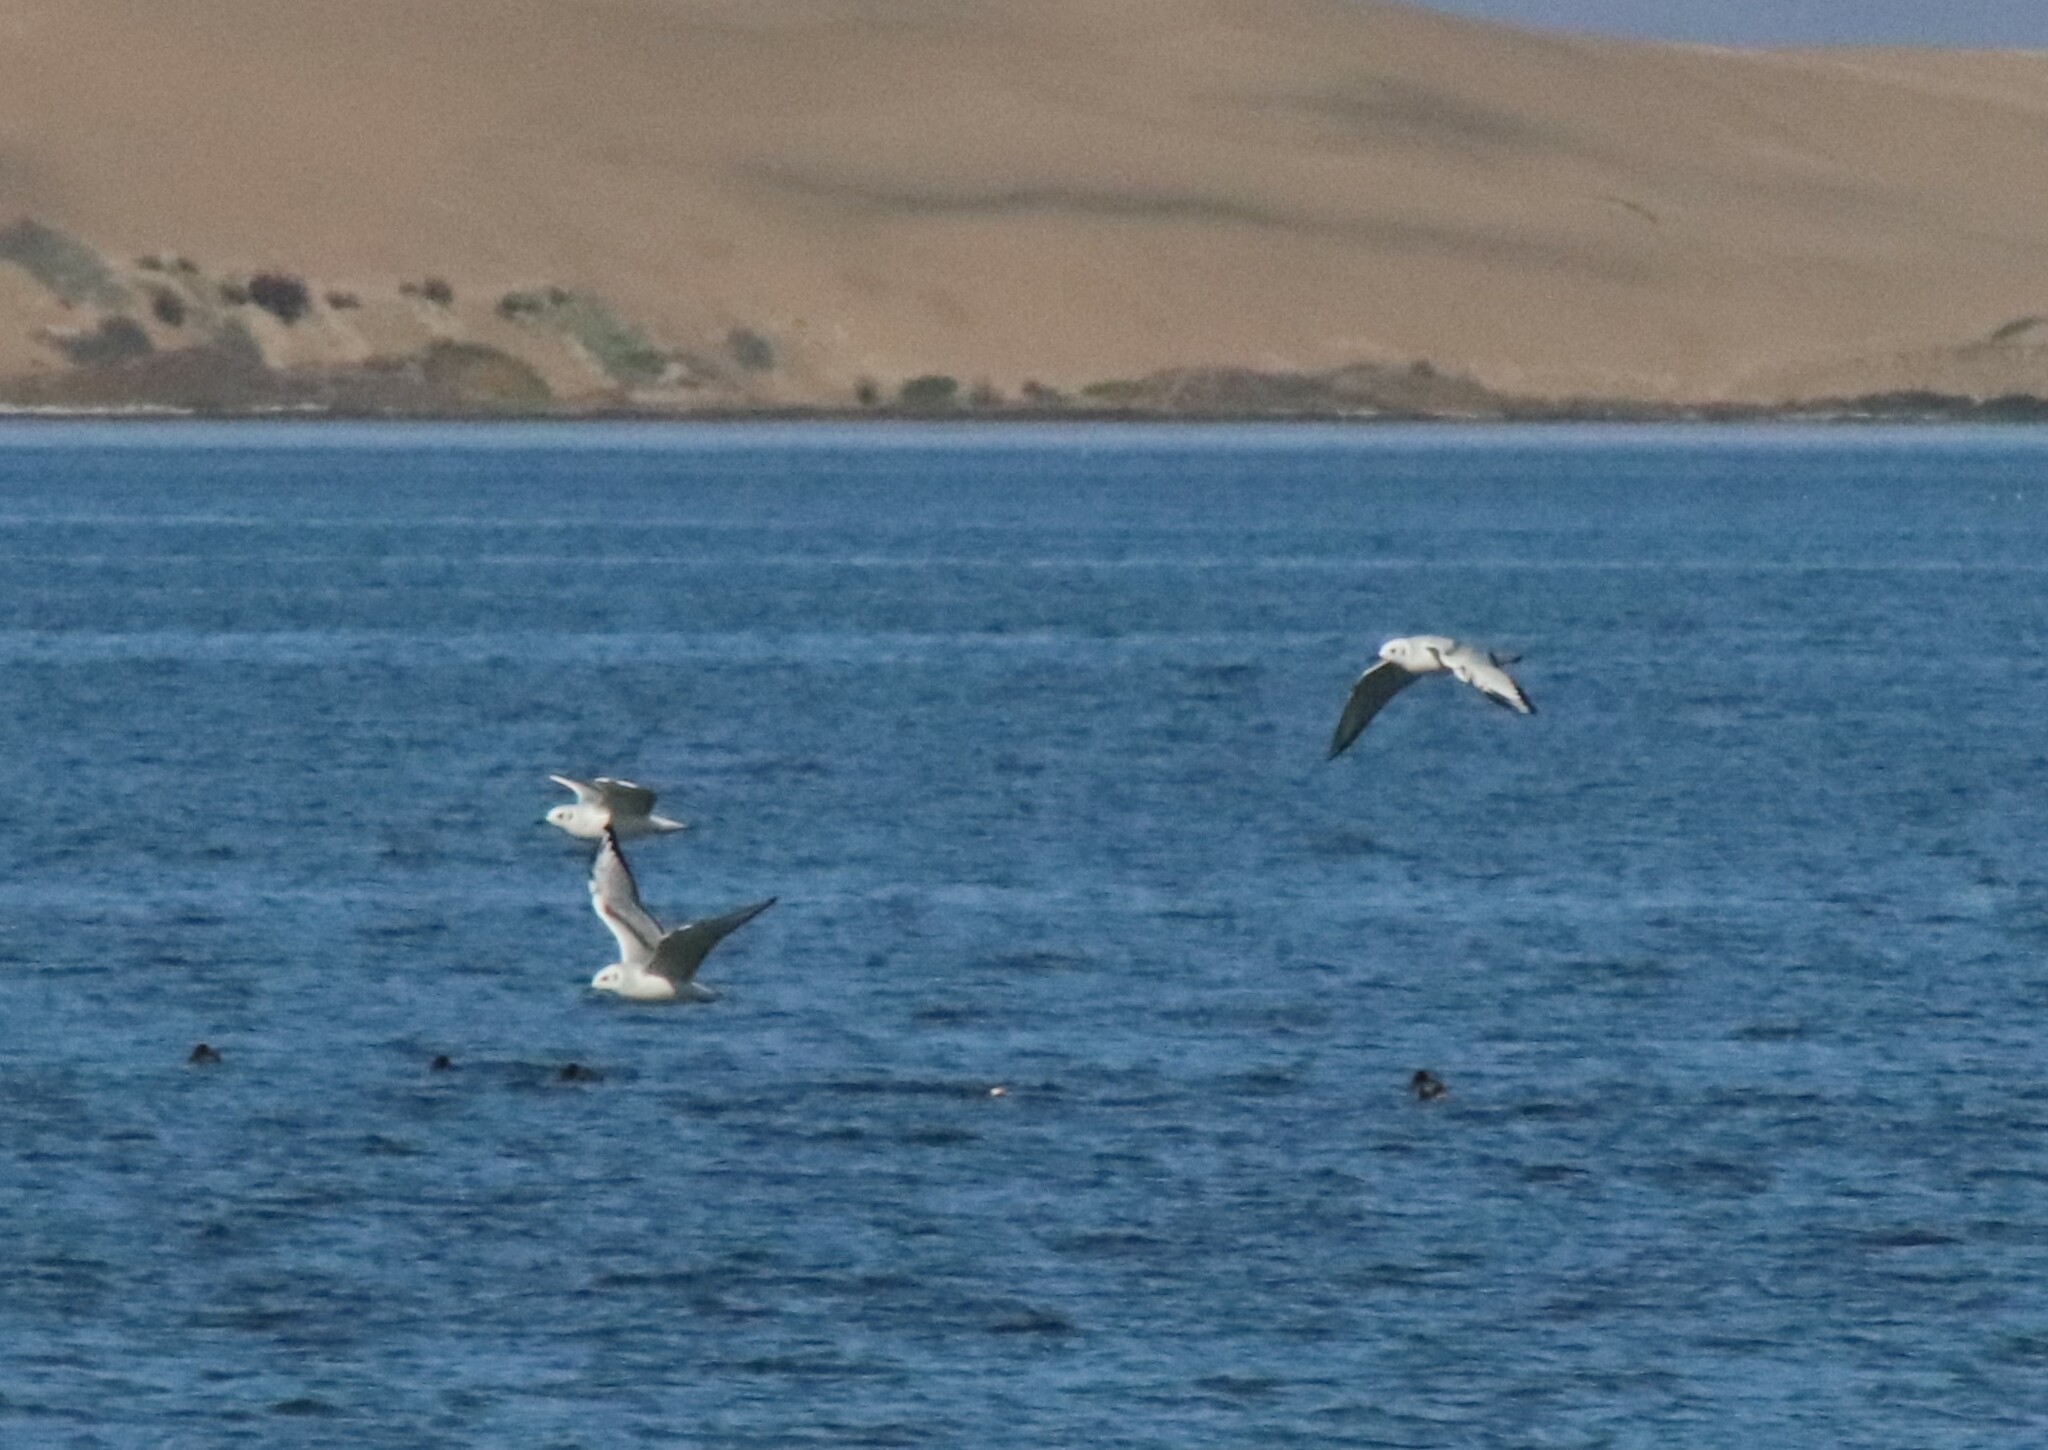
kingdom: Animalia
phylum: Chordata
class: Aves
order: Charadriiformes
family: Laridae
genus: Chroicocephalus
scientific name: Chroicocephalus philadelphia
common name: Bonaparte's gull
